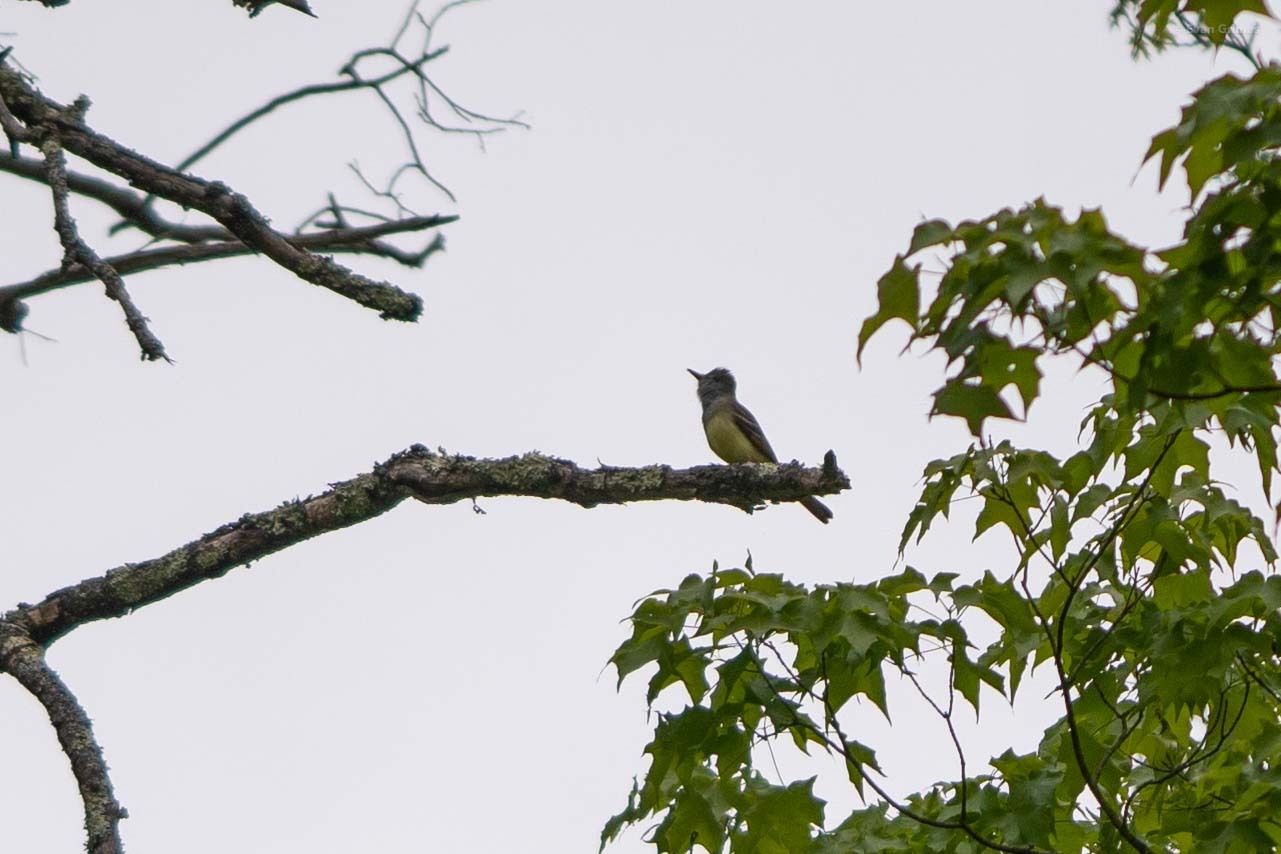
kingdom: Animalia
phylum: Chordata
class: Aves
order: Passeriformes
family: Tyrannidae
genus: Myiarchus
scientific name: Myiarchus crinitus
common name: Great crested flycatcher
